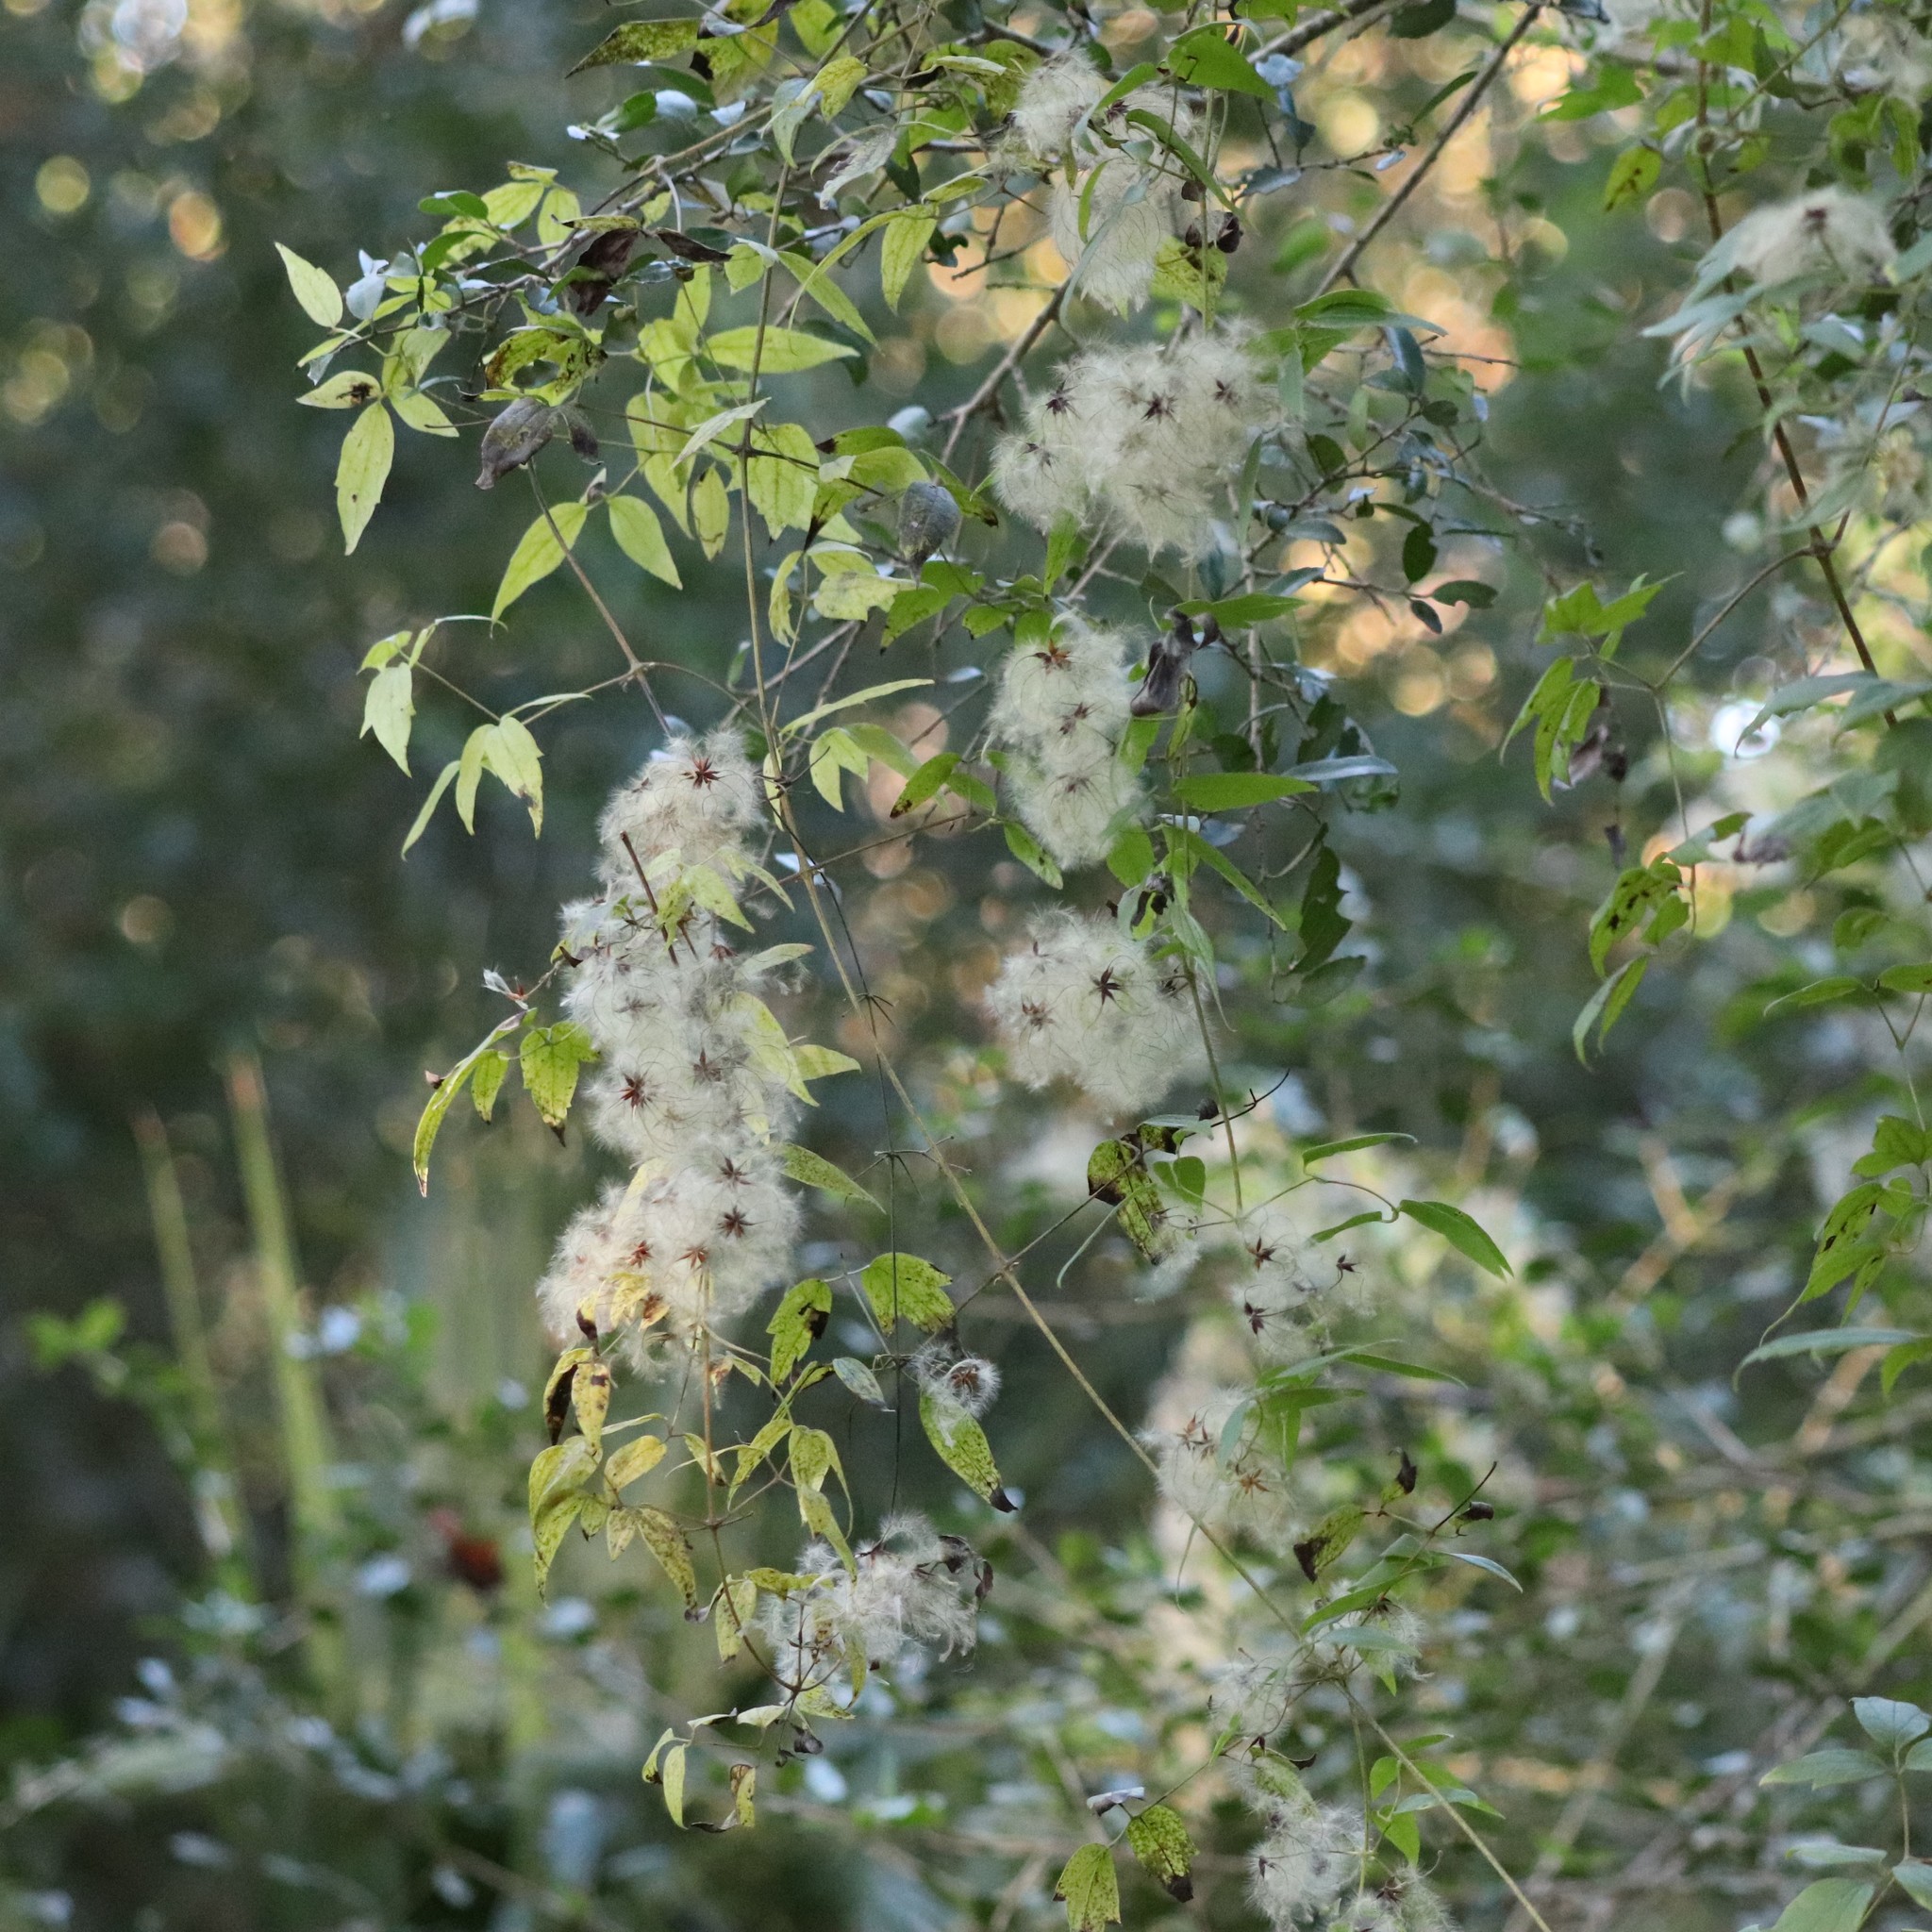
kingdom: Plantae
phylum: Tracheophyta
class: Magnoliopsida
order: Ranunculales
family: Ranunculaceae
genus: Clematis
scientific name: Clematis virginiana
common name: Virgin's-bower
